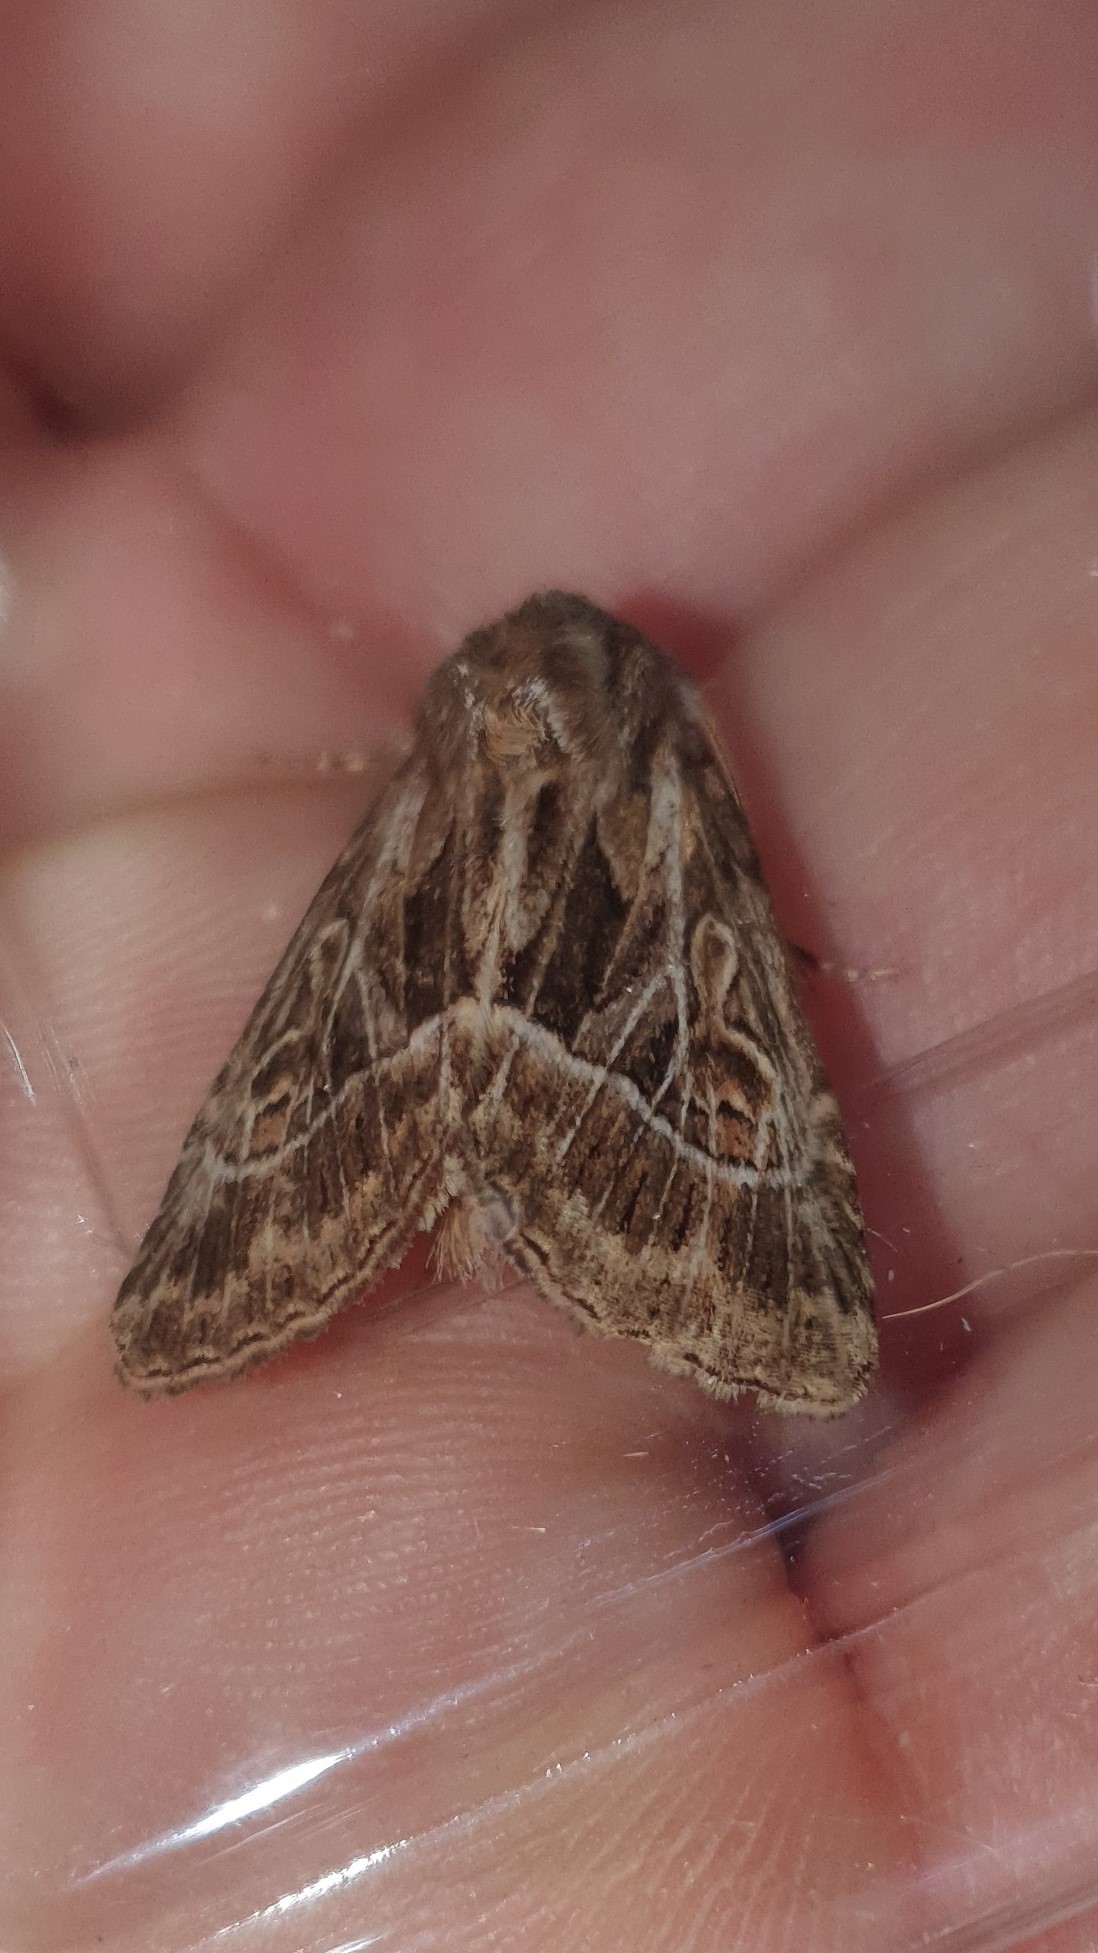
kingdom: Animalia
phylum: Arthropoda
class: Insecta
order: Lepidoptera
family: Noctuidae
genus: Thalpophila
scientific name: Thalpophila vitalba
